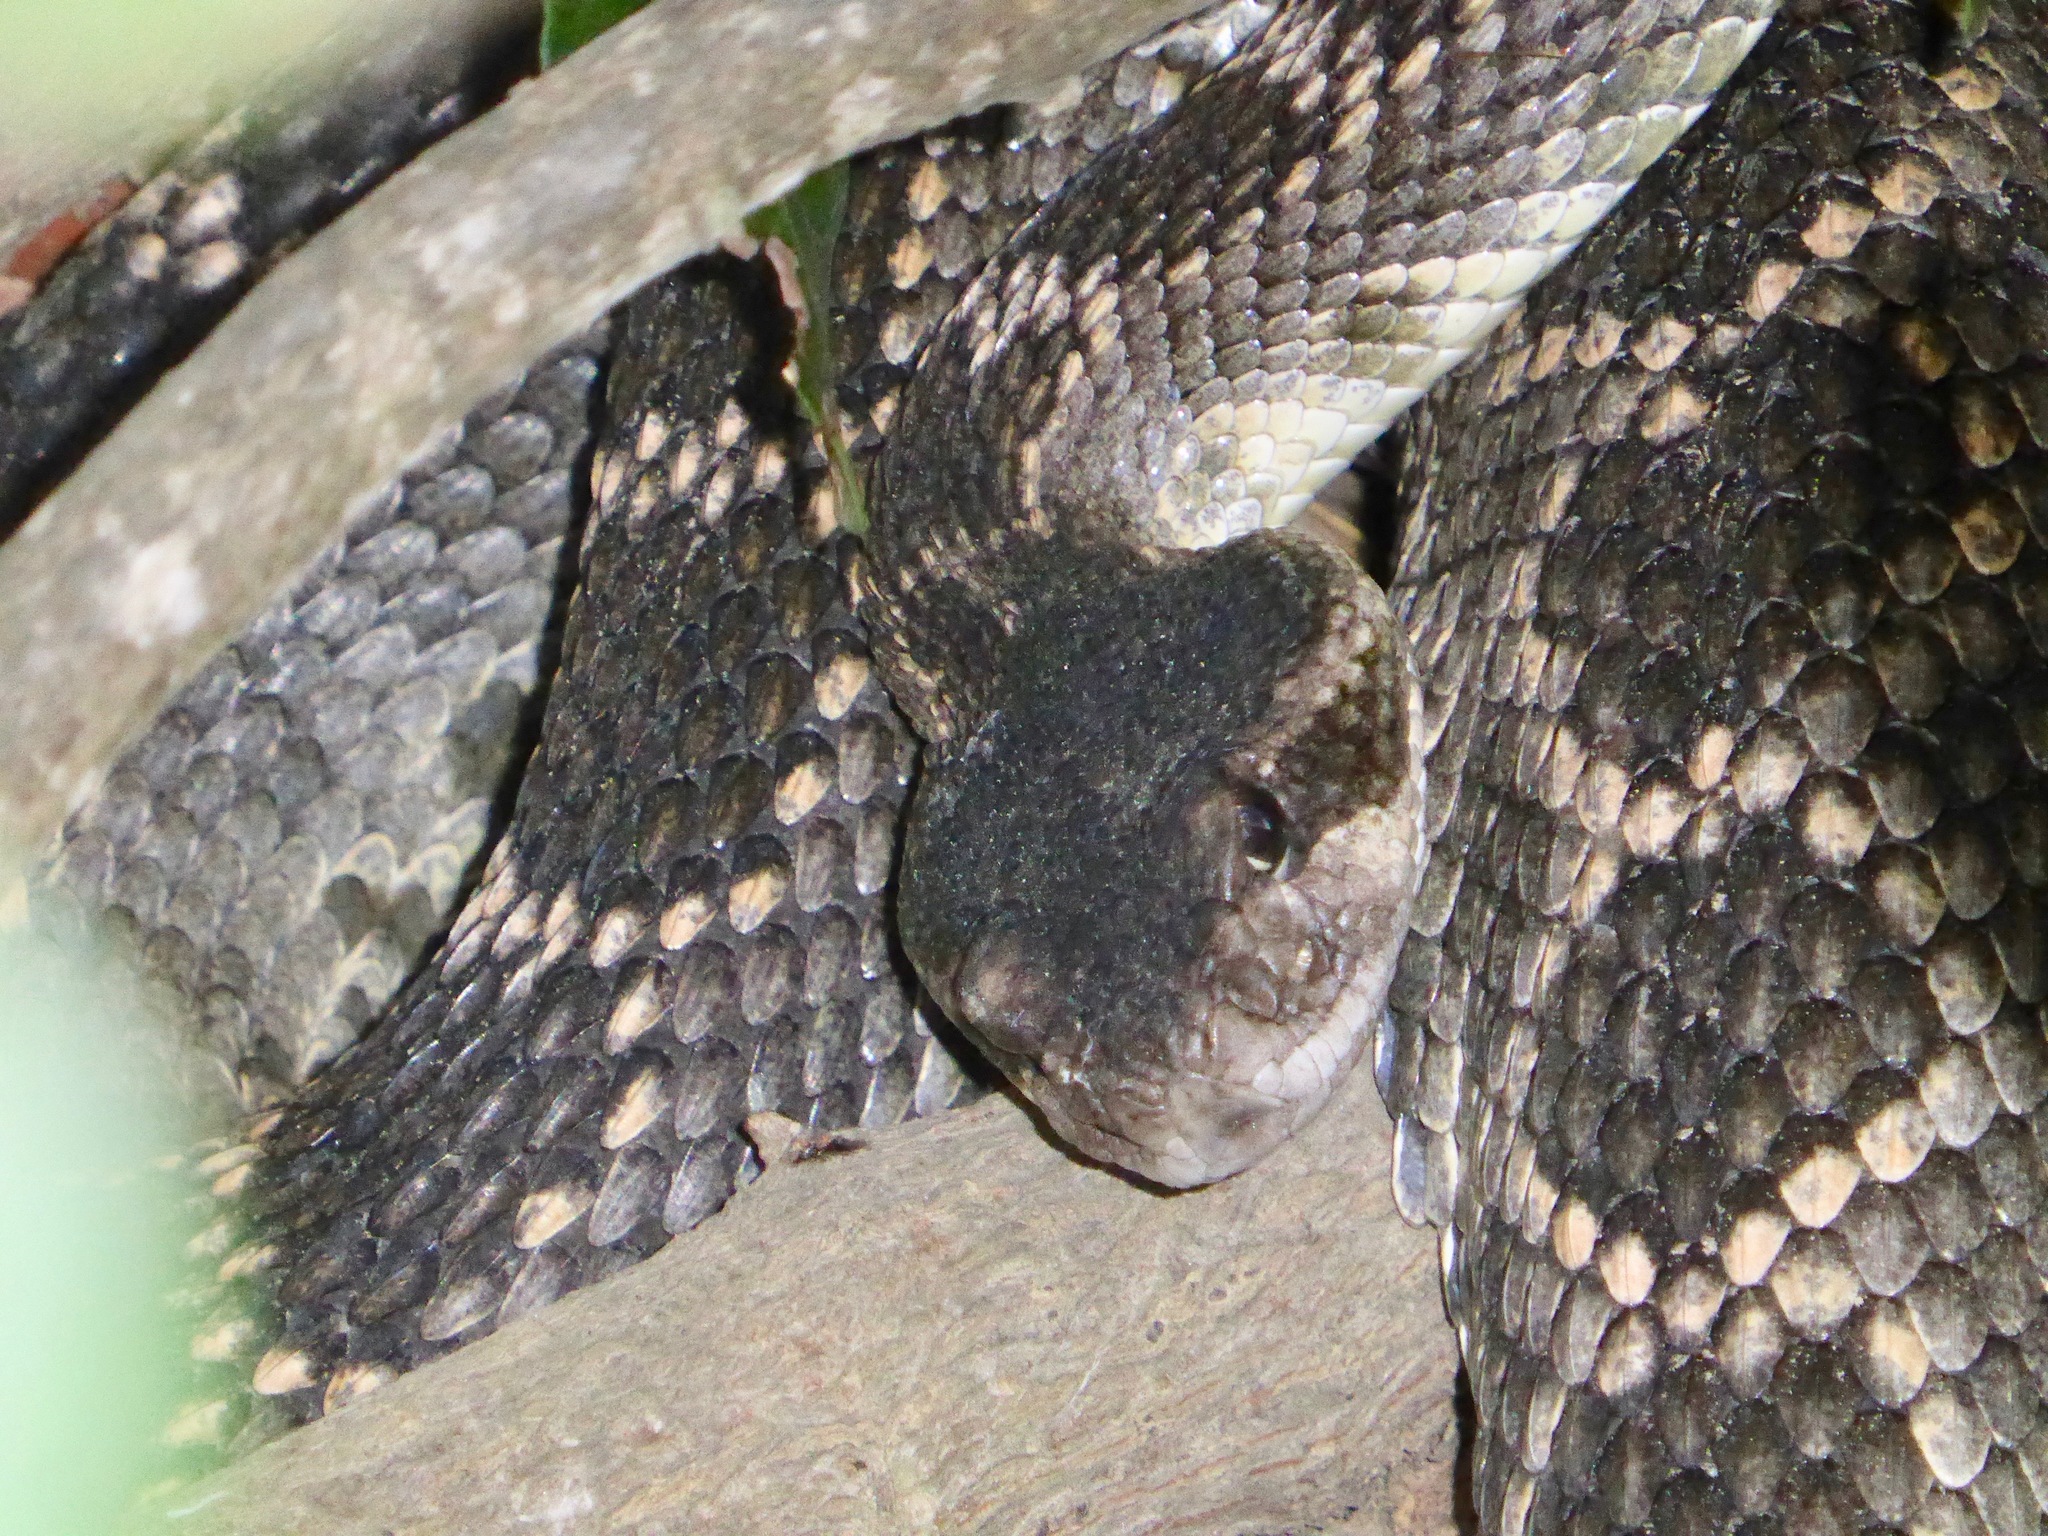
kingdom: Animalia
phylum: Chordata
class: Squamata
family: Viperidae
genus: Crotalus
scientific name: Crotalus oreganus
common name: Abyssus
